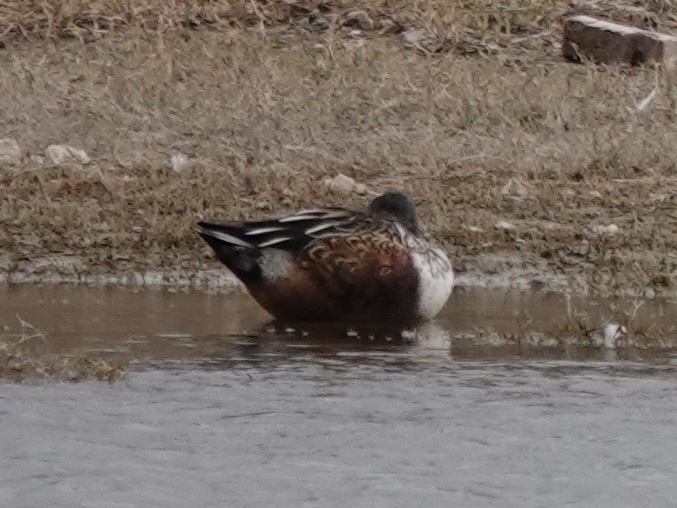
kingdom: Animalia
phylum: Chordata
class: Aves
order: Anseriformes
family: Anatidae
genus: Spatula
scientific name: Spatula clypeata
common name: Northern shoveler
